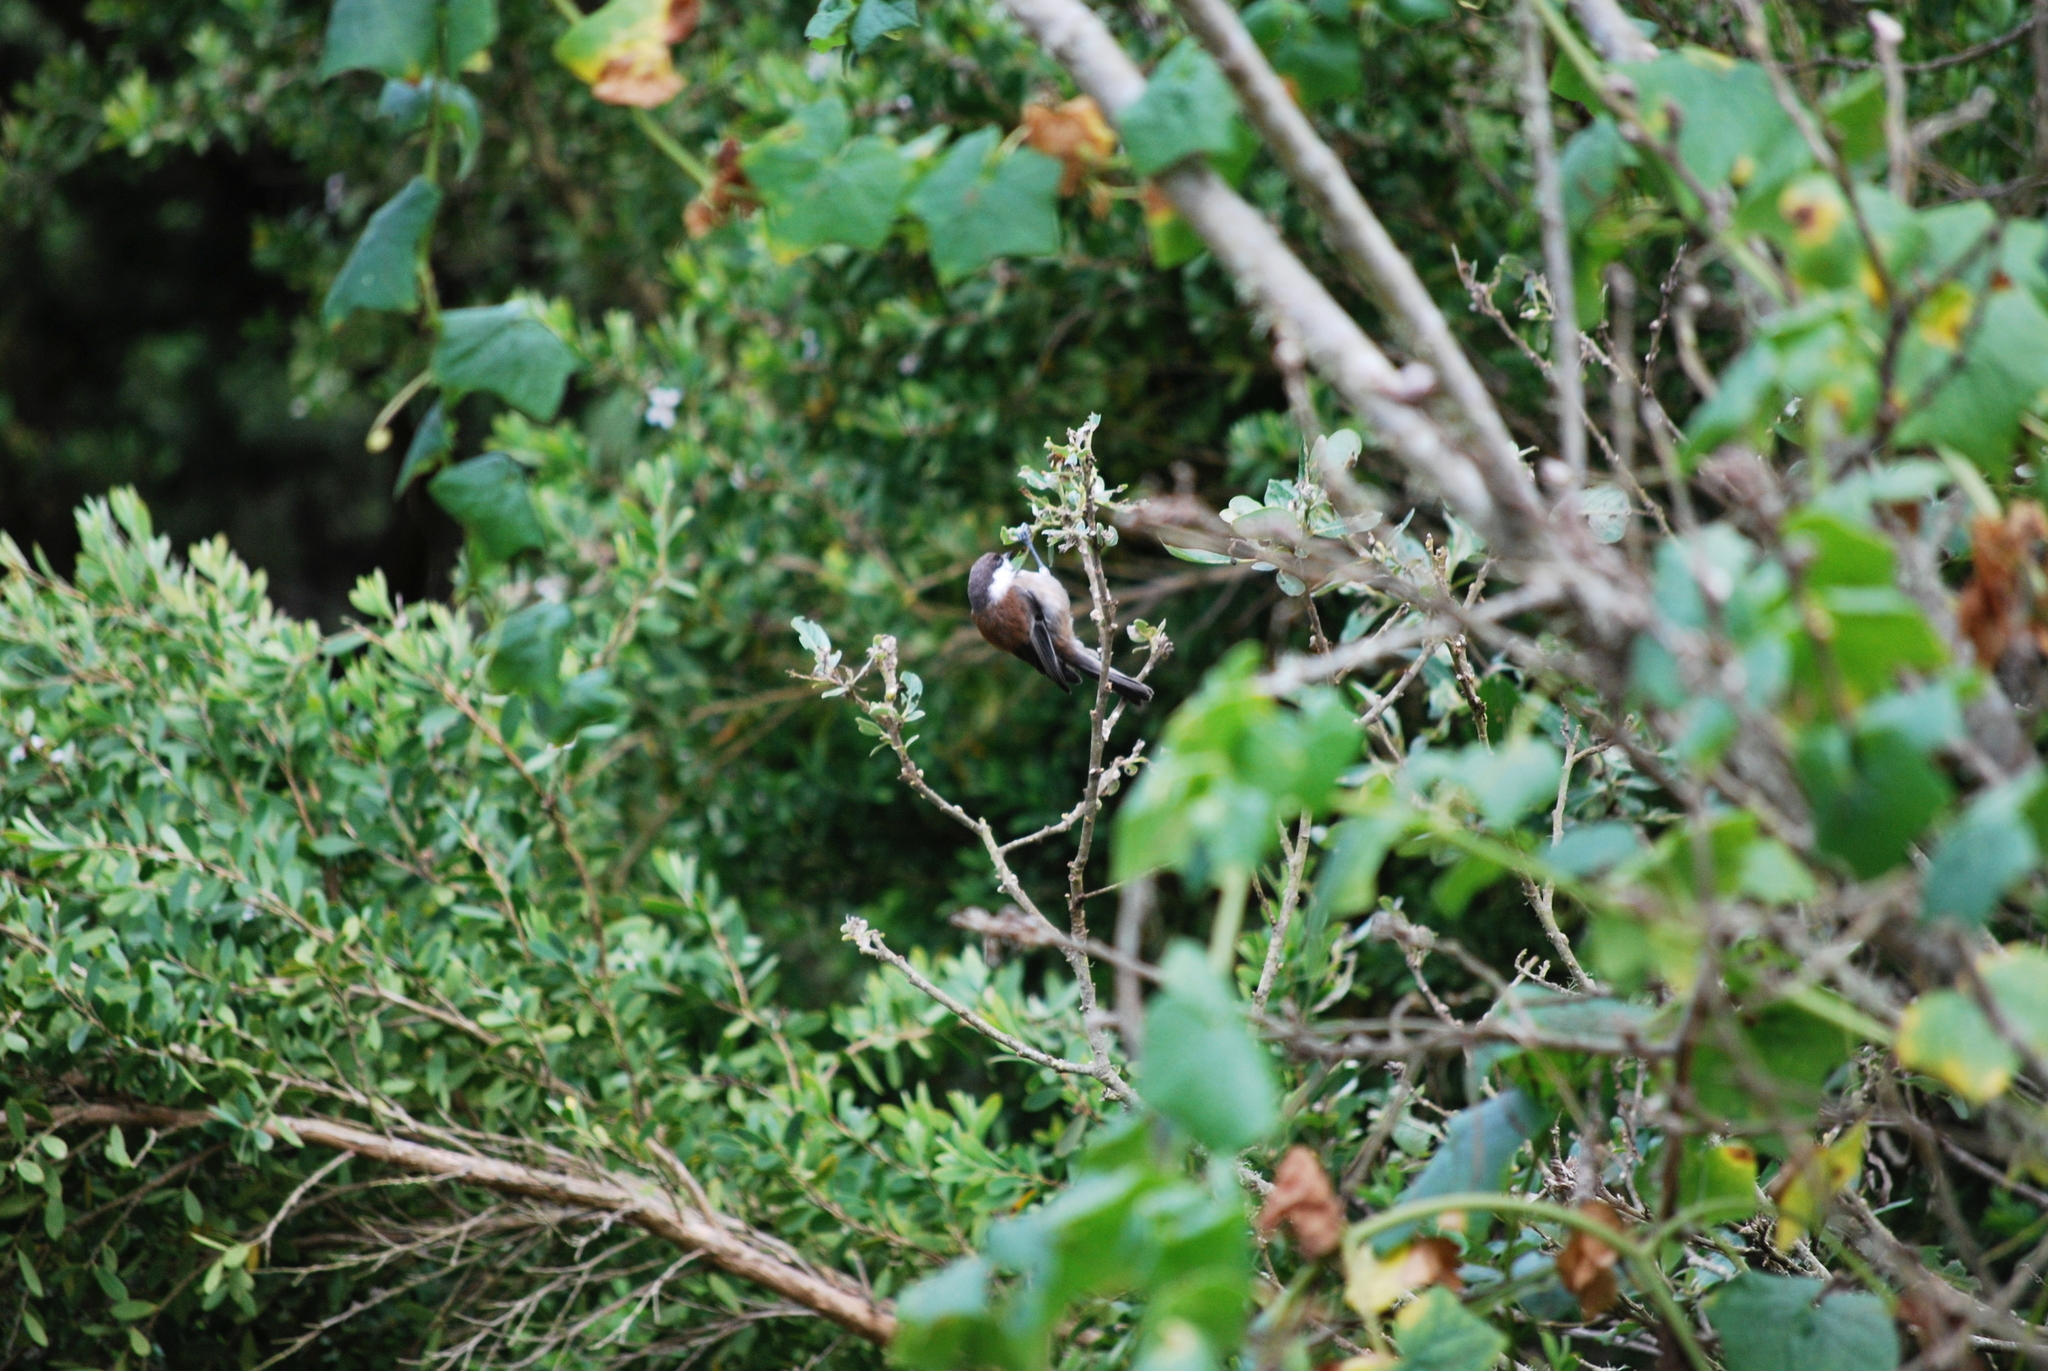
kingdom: Animalia
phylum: Chordata
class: Aves
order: Passeriformes
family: Paridae
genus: Poecile
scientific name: Poecile rufescens
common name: Chestnut-backed chickadee
